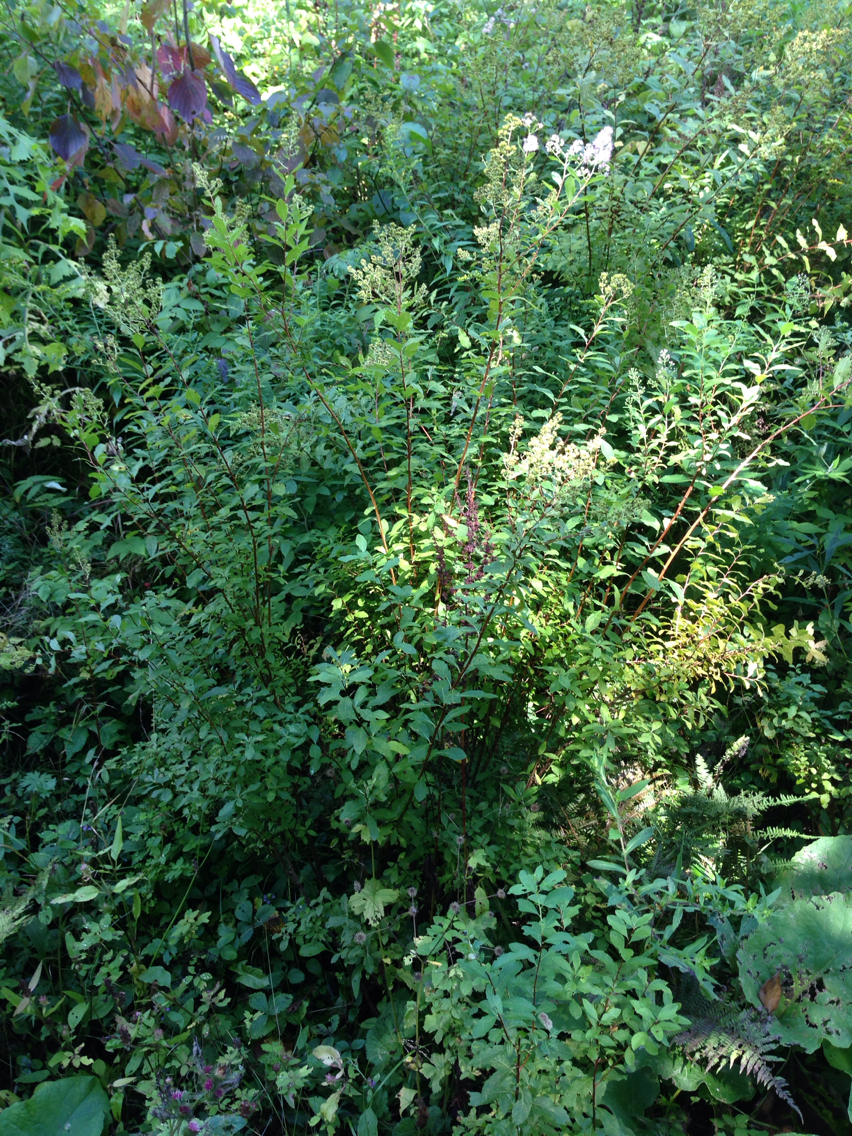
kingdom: Plantae
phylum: Tracheophyta
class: Magnoliopsida
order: Rosales
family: Rosaceae
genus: Spiraea
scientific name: Spiraea alba
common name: Pale bridewort
